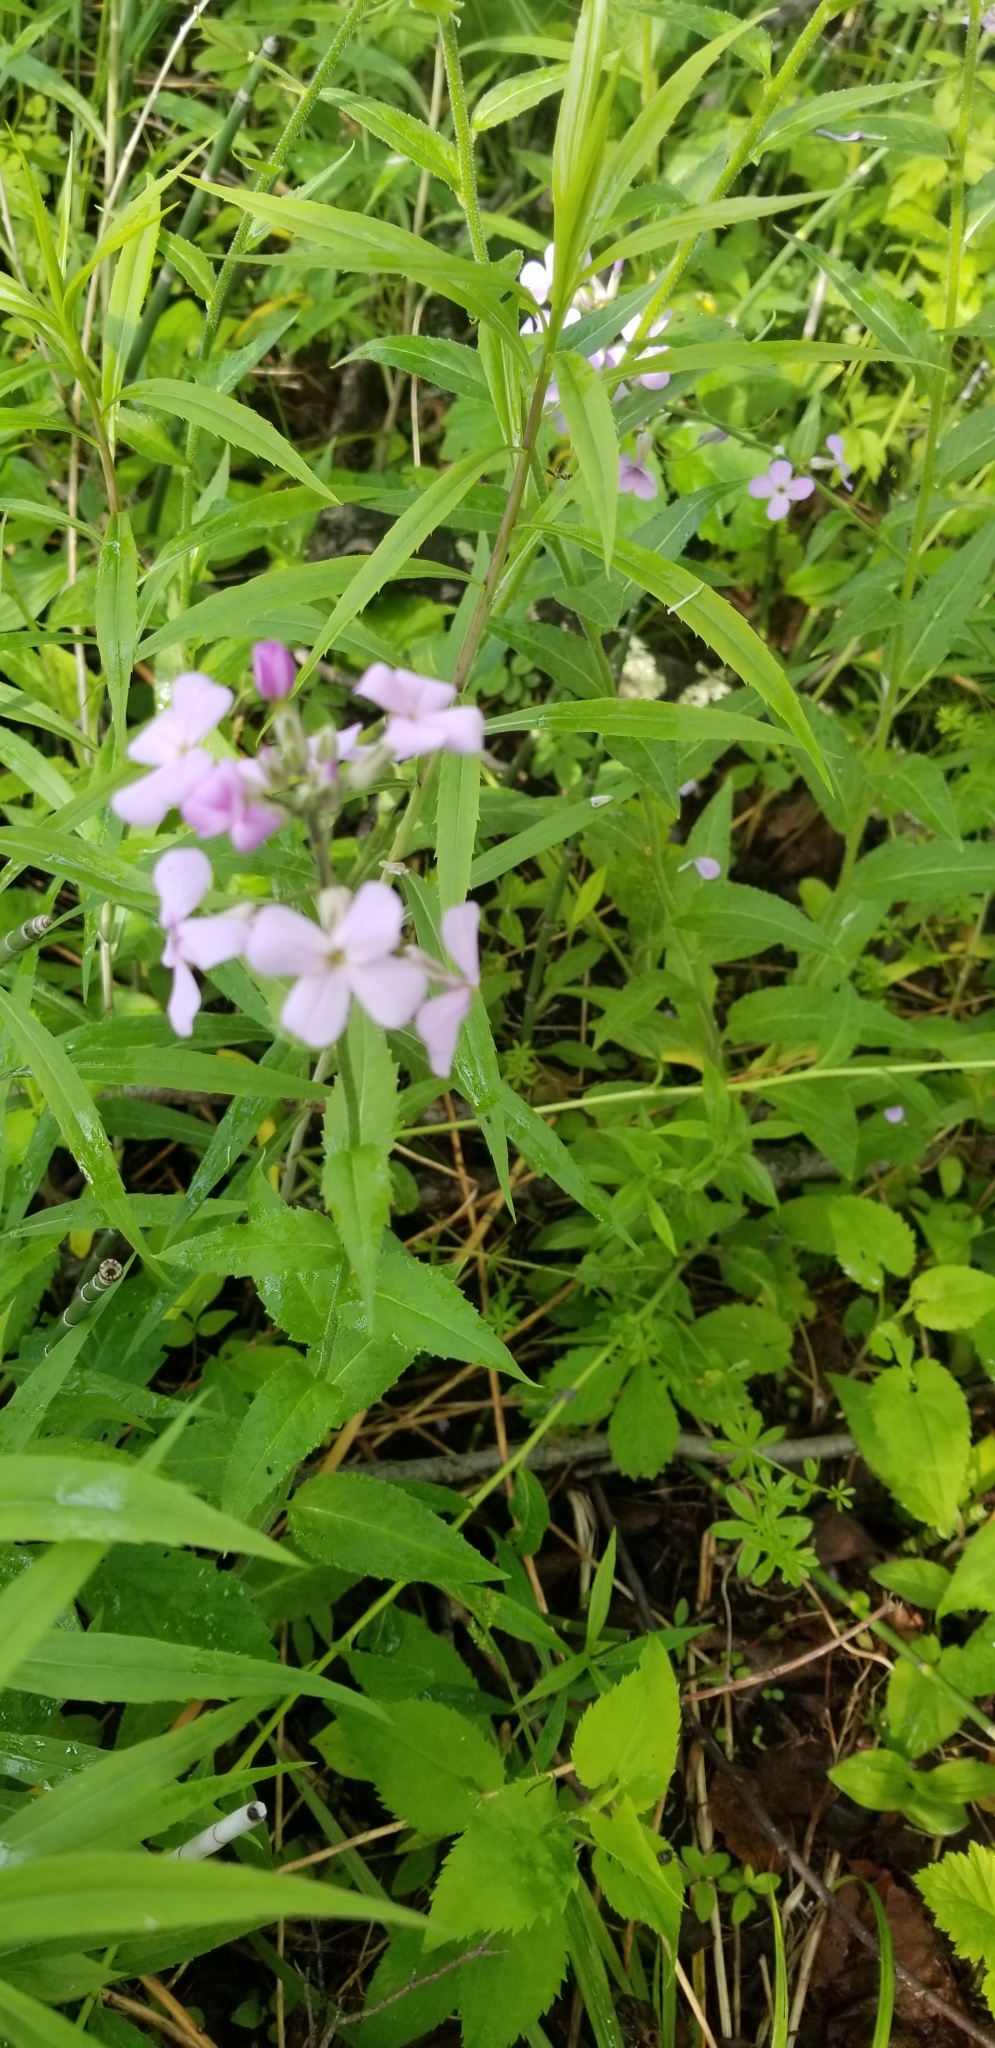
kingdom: Plantae
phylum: Tracheophyta
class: Magnoliopsida
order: Brassicales
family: Brassicaceae
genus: Hesperis
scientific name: Hesperis matronalis
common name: Dame's-violet
